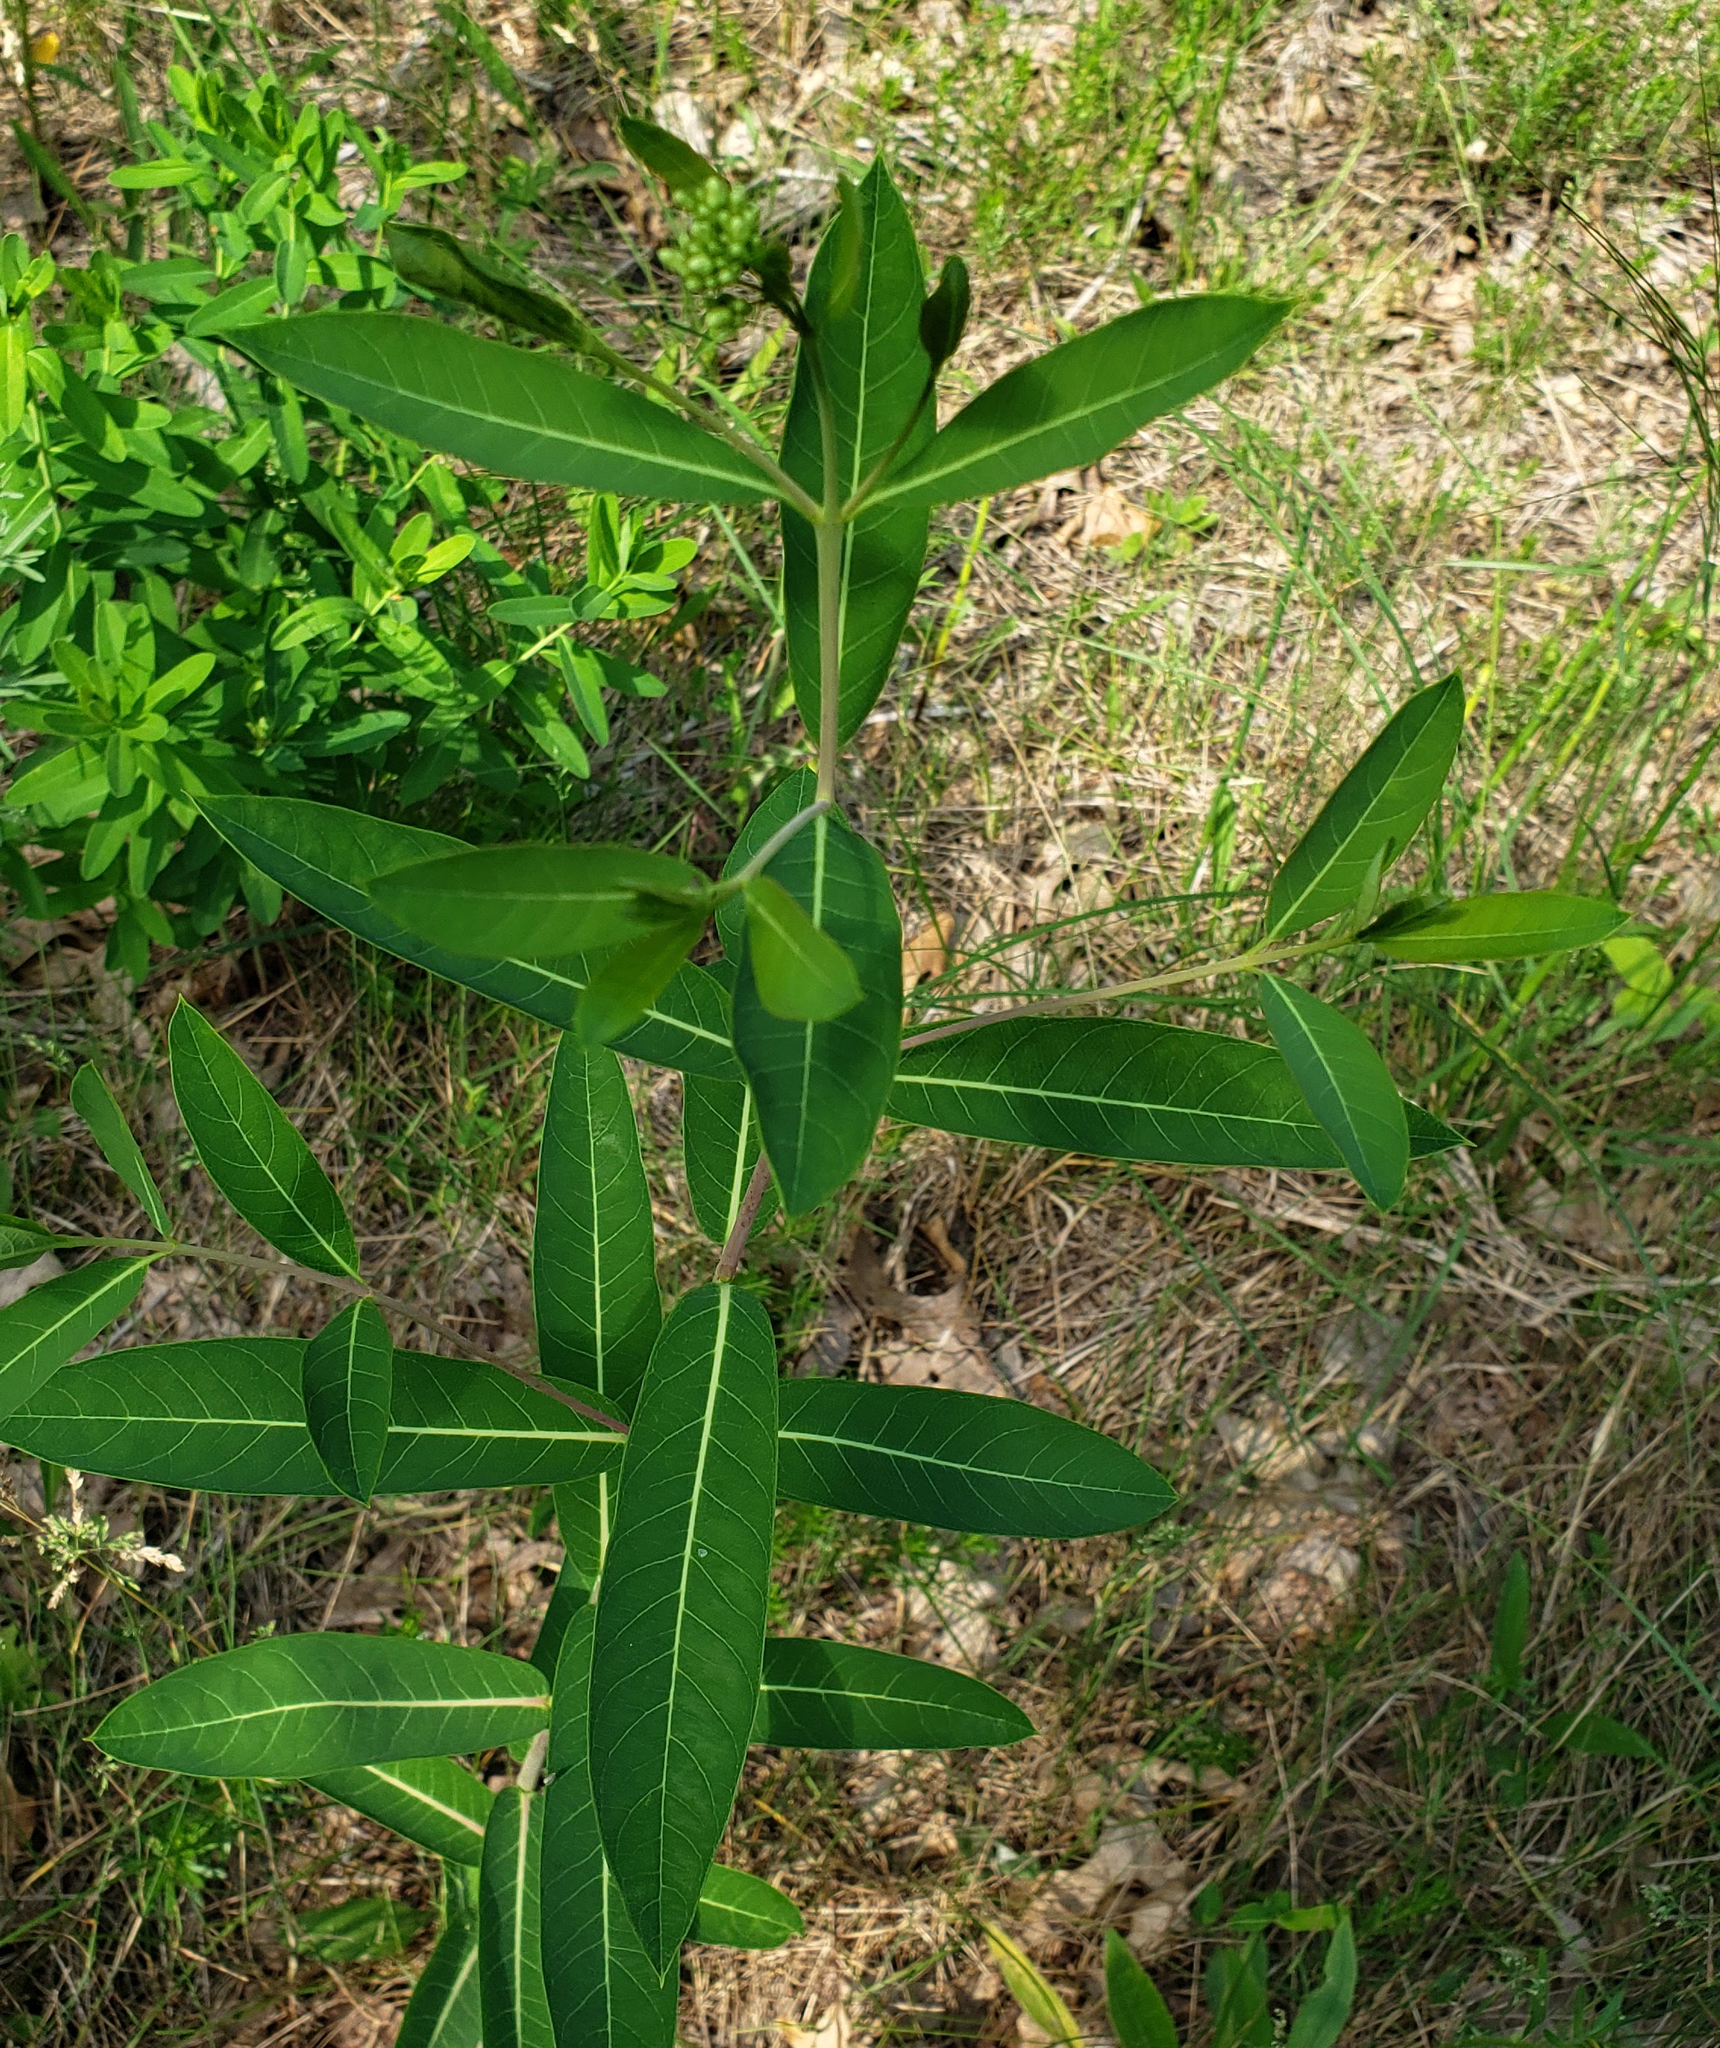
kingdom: Plantae
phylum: Tracheophyta
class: Magnoliopsida
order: Gentianales
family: Apocynaceae
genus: Apocynum
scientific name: Apocynum cannabinum
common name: Hemp dogbane
